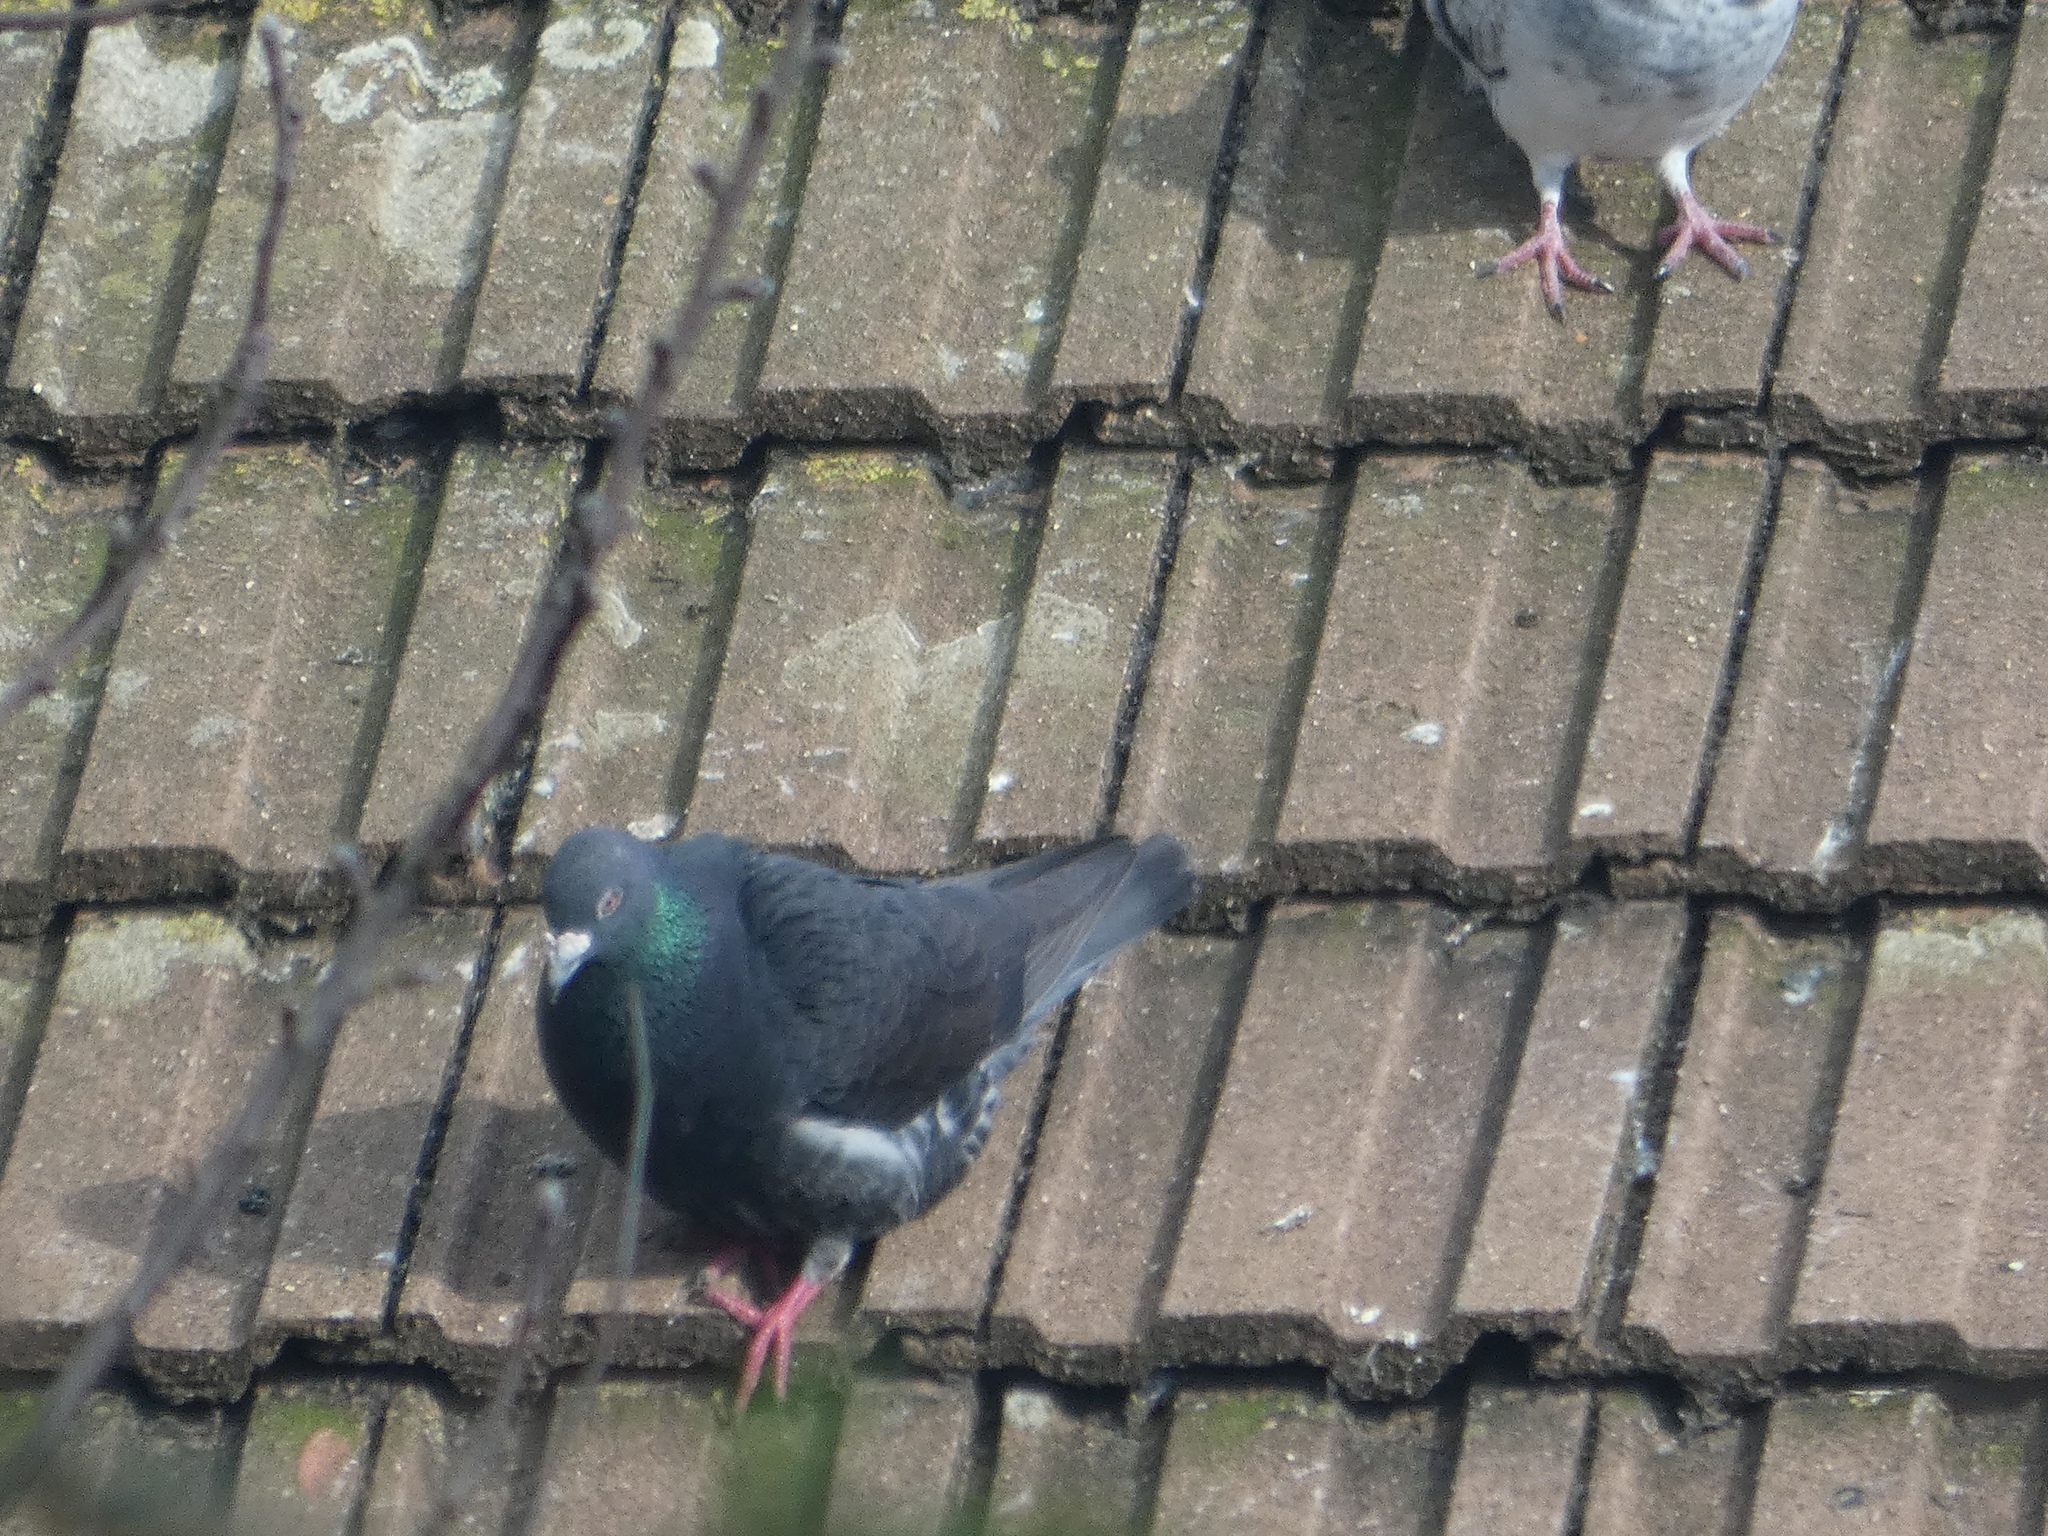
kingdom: Animalia
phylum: Chordata
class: Aves
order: Columbiformes
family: Columbidae
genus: Columba
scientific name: Columba livia
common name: Rock pigeon
